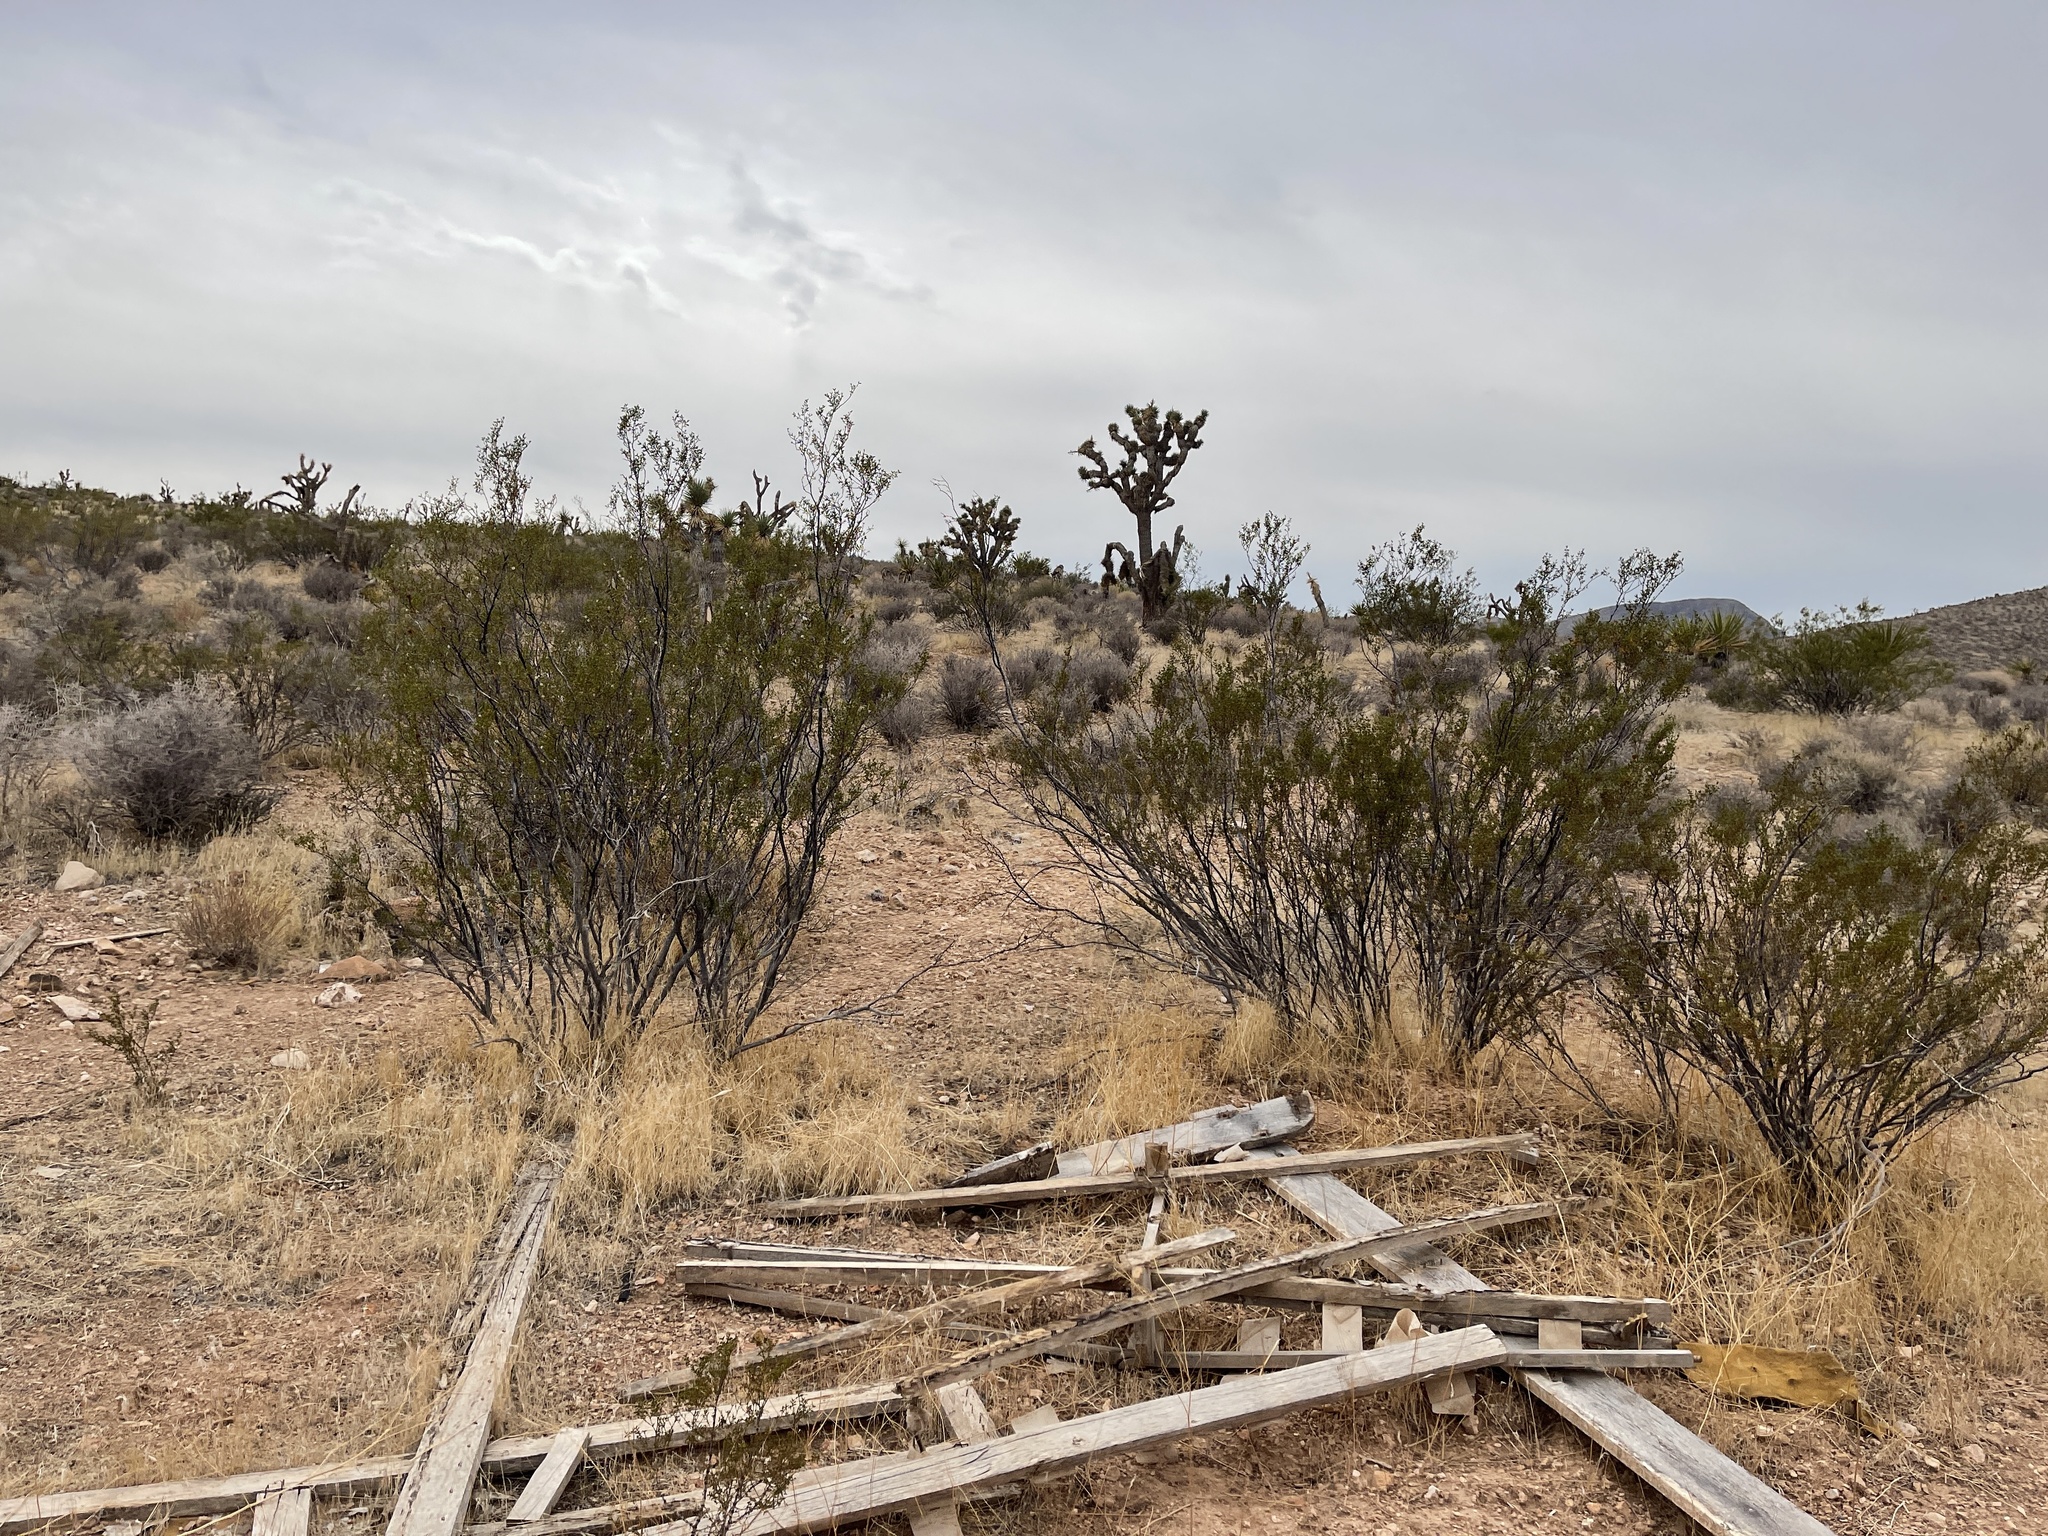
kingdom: Plantae
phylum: Tracheophyta
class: Magnoliopsida
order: Zygophyllales
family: Zygophyllaceae
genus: Larrea
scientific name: Larrea tridentata
